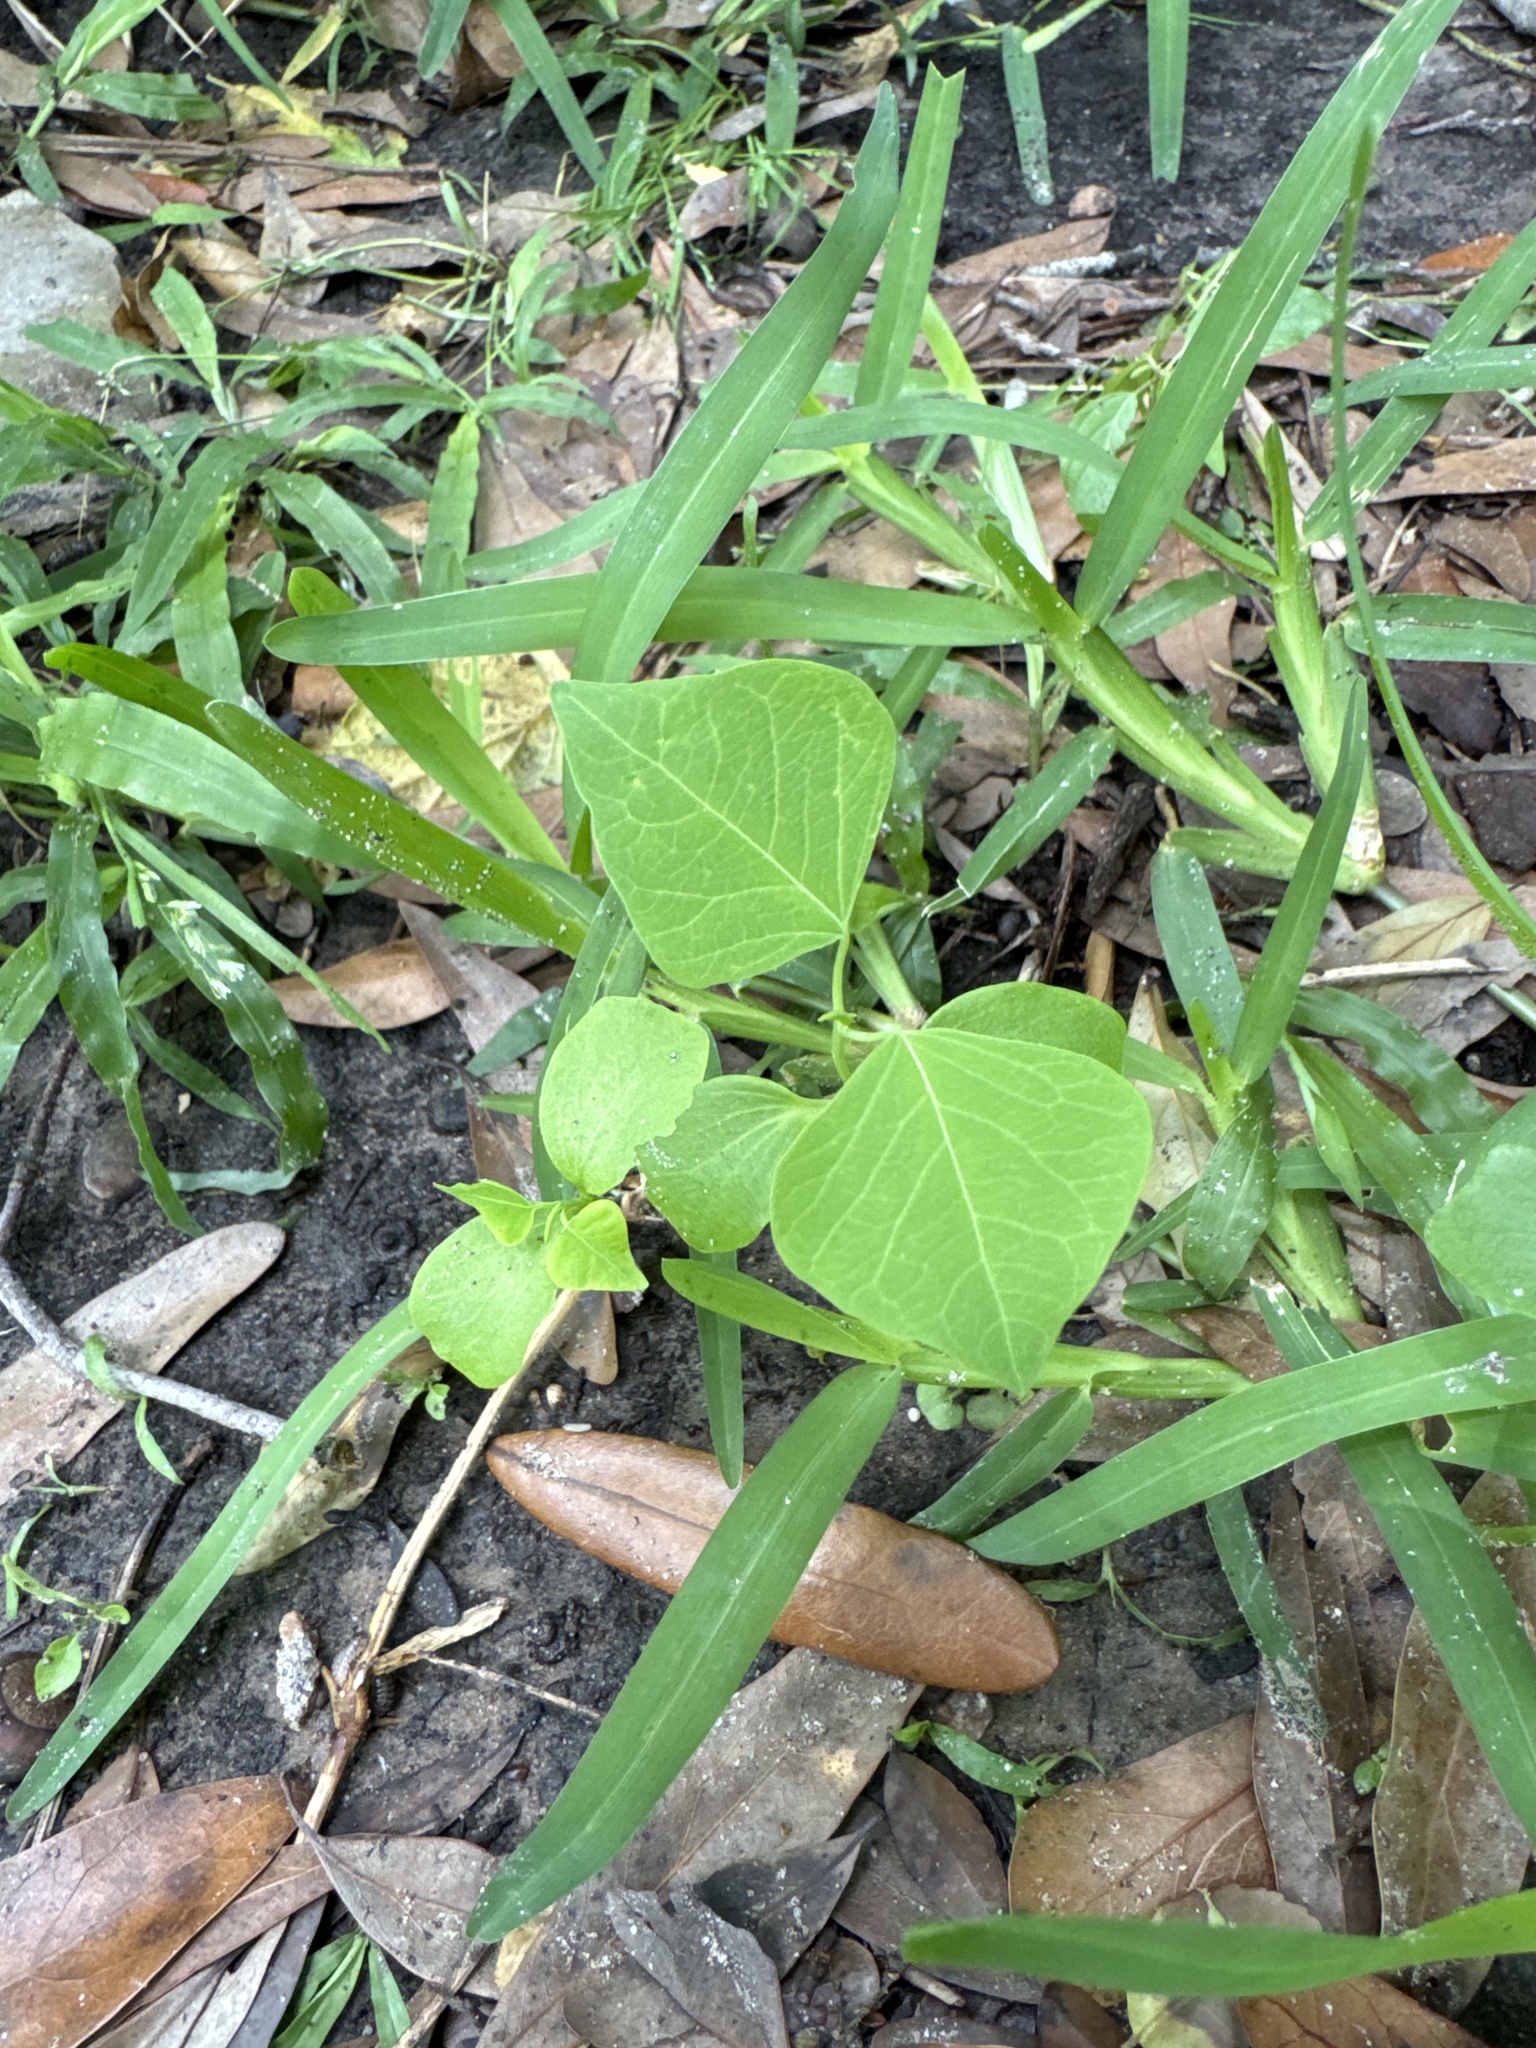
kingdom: Plantae
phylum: Tracheophyta
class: Magnoliopsida
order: Malpighiales
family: Euphorbiaceae
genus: Triadica
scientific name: Triadica sebifera
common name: Chinese tallow
